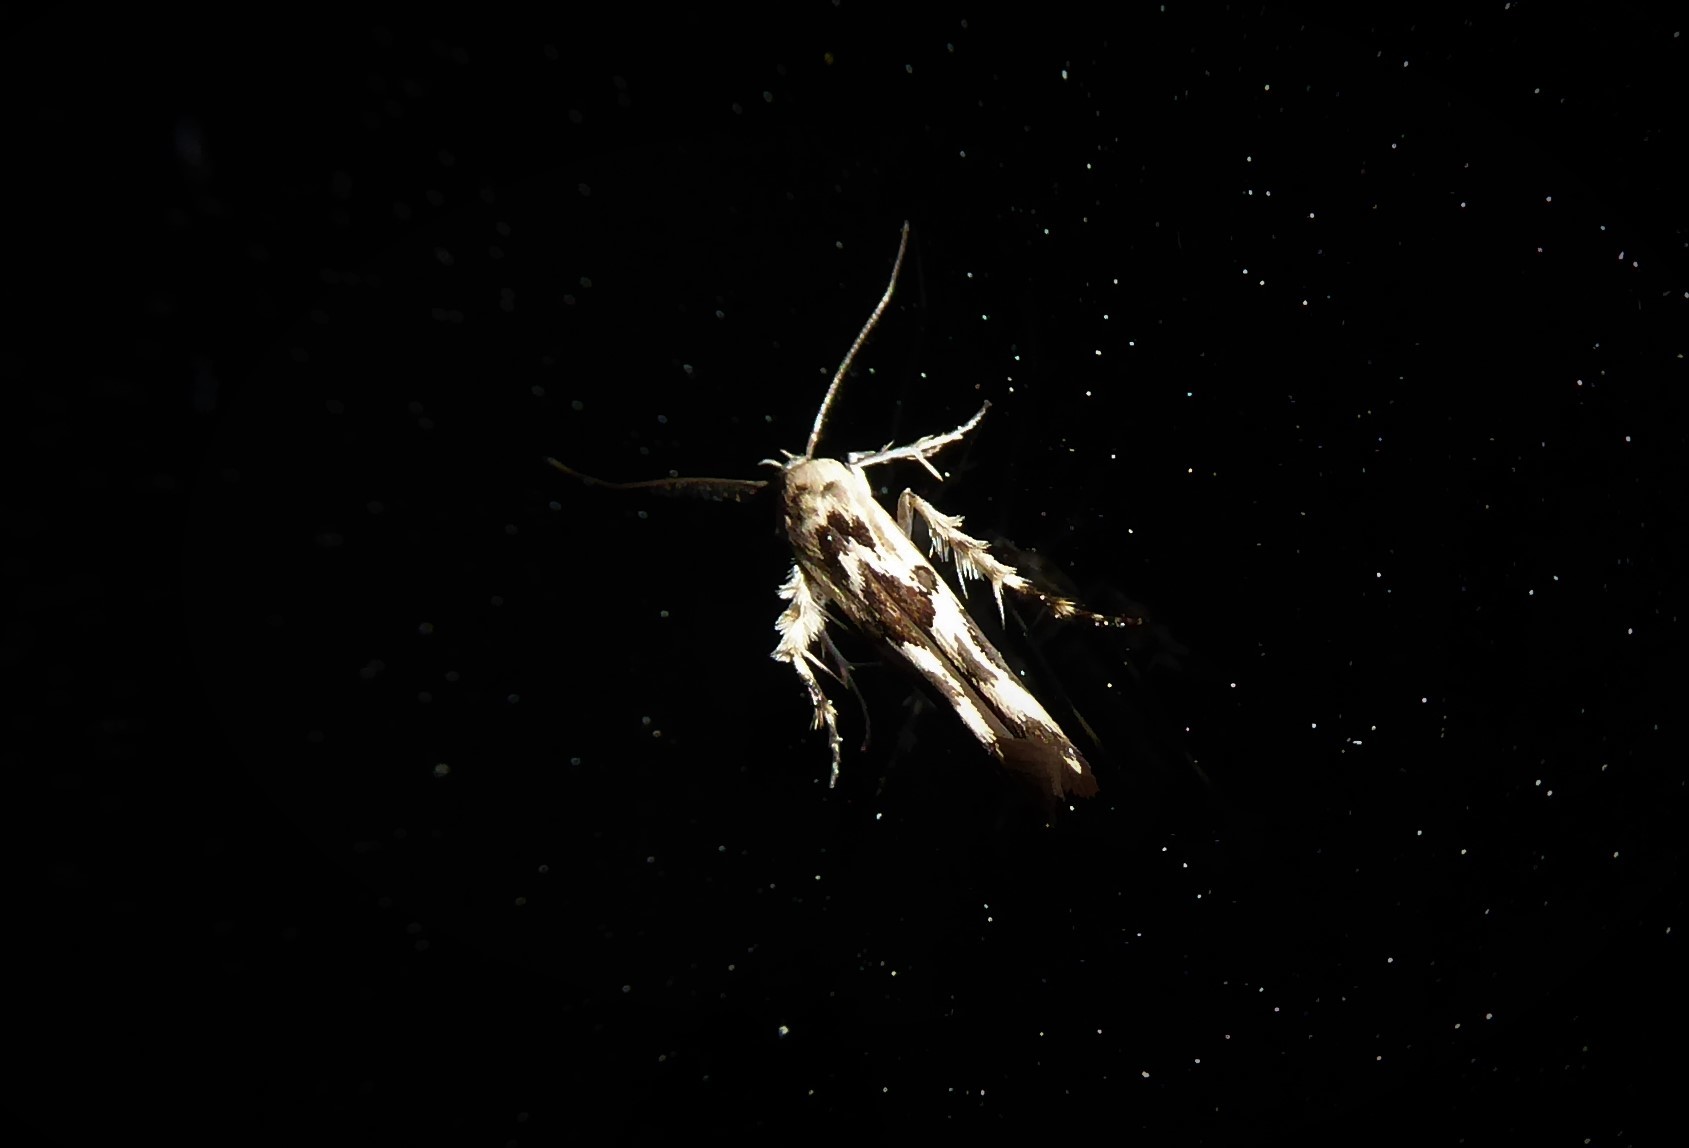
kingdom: Animalia
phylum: Arthropoda
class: Insecta
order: Lepidoptera
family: Stathmopodidae
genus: Stathmopoda
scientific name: Stathmopoda melanochra
